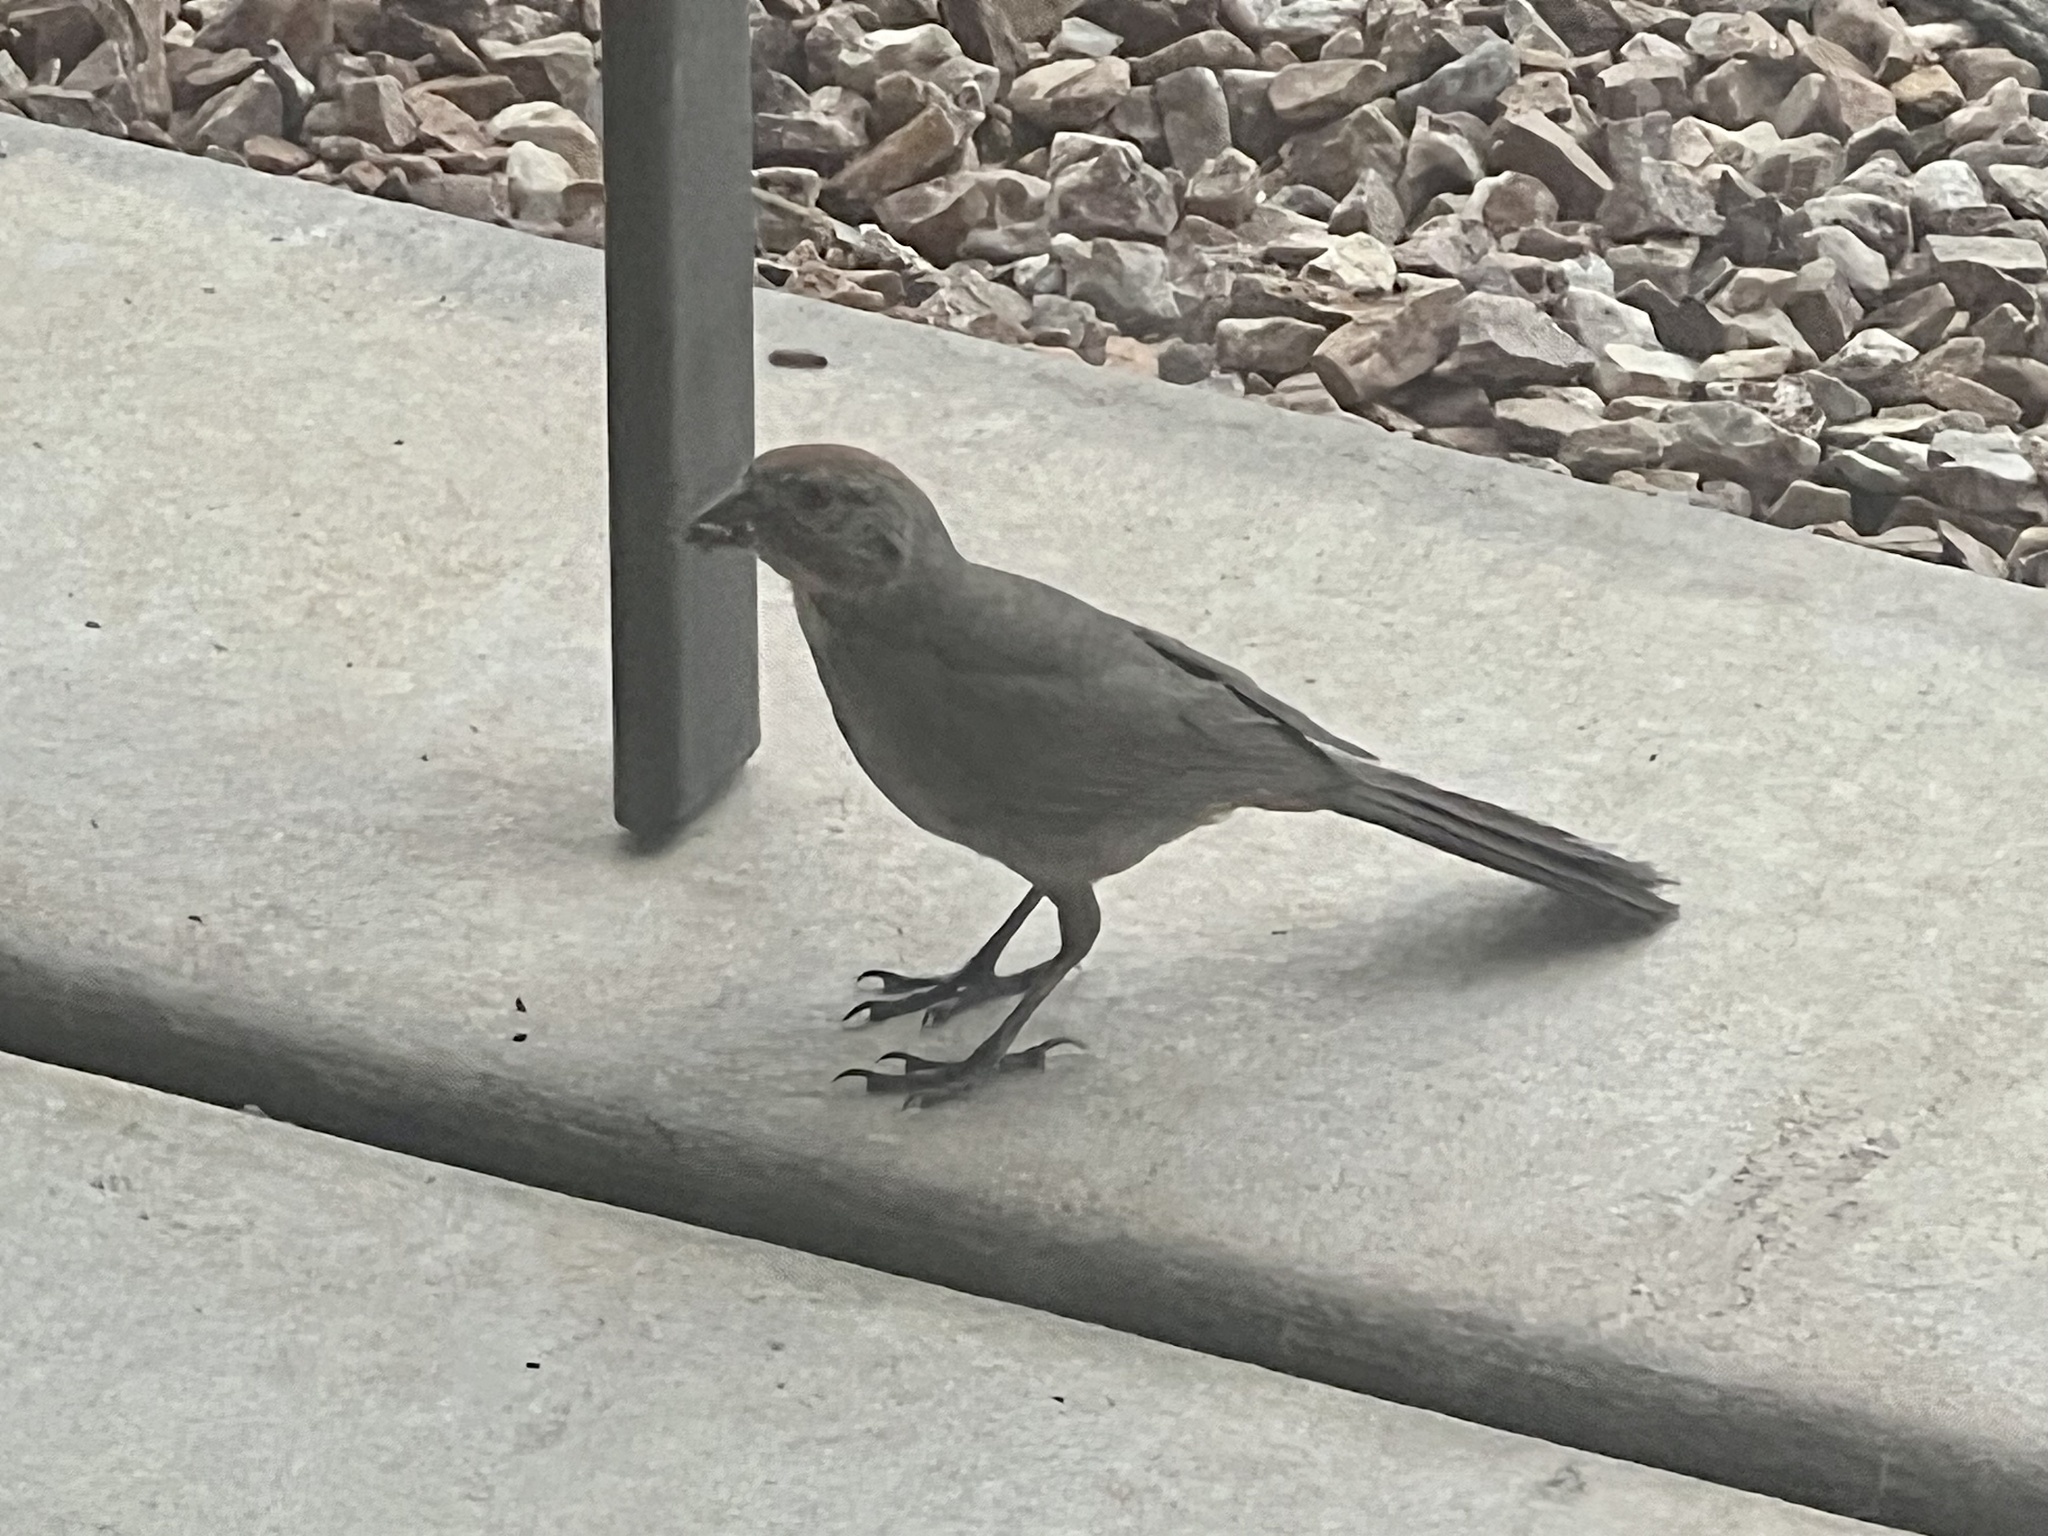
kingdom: Animalia
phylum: Chordata
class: Aves
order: Passeriformes
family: Passerellidae
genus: Melozone
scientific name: Melozone fusca
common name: Canyon towhee
